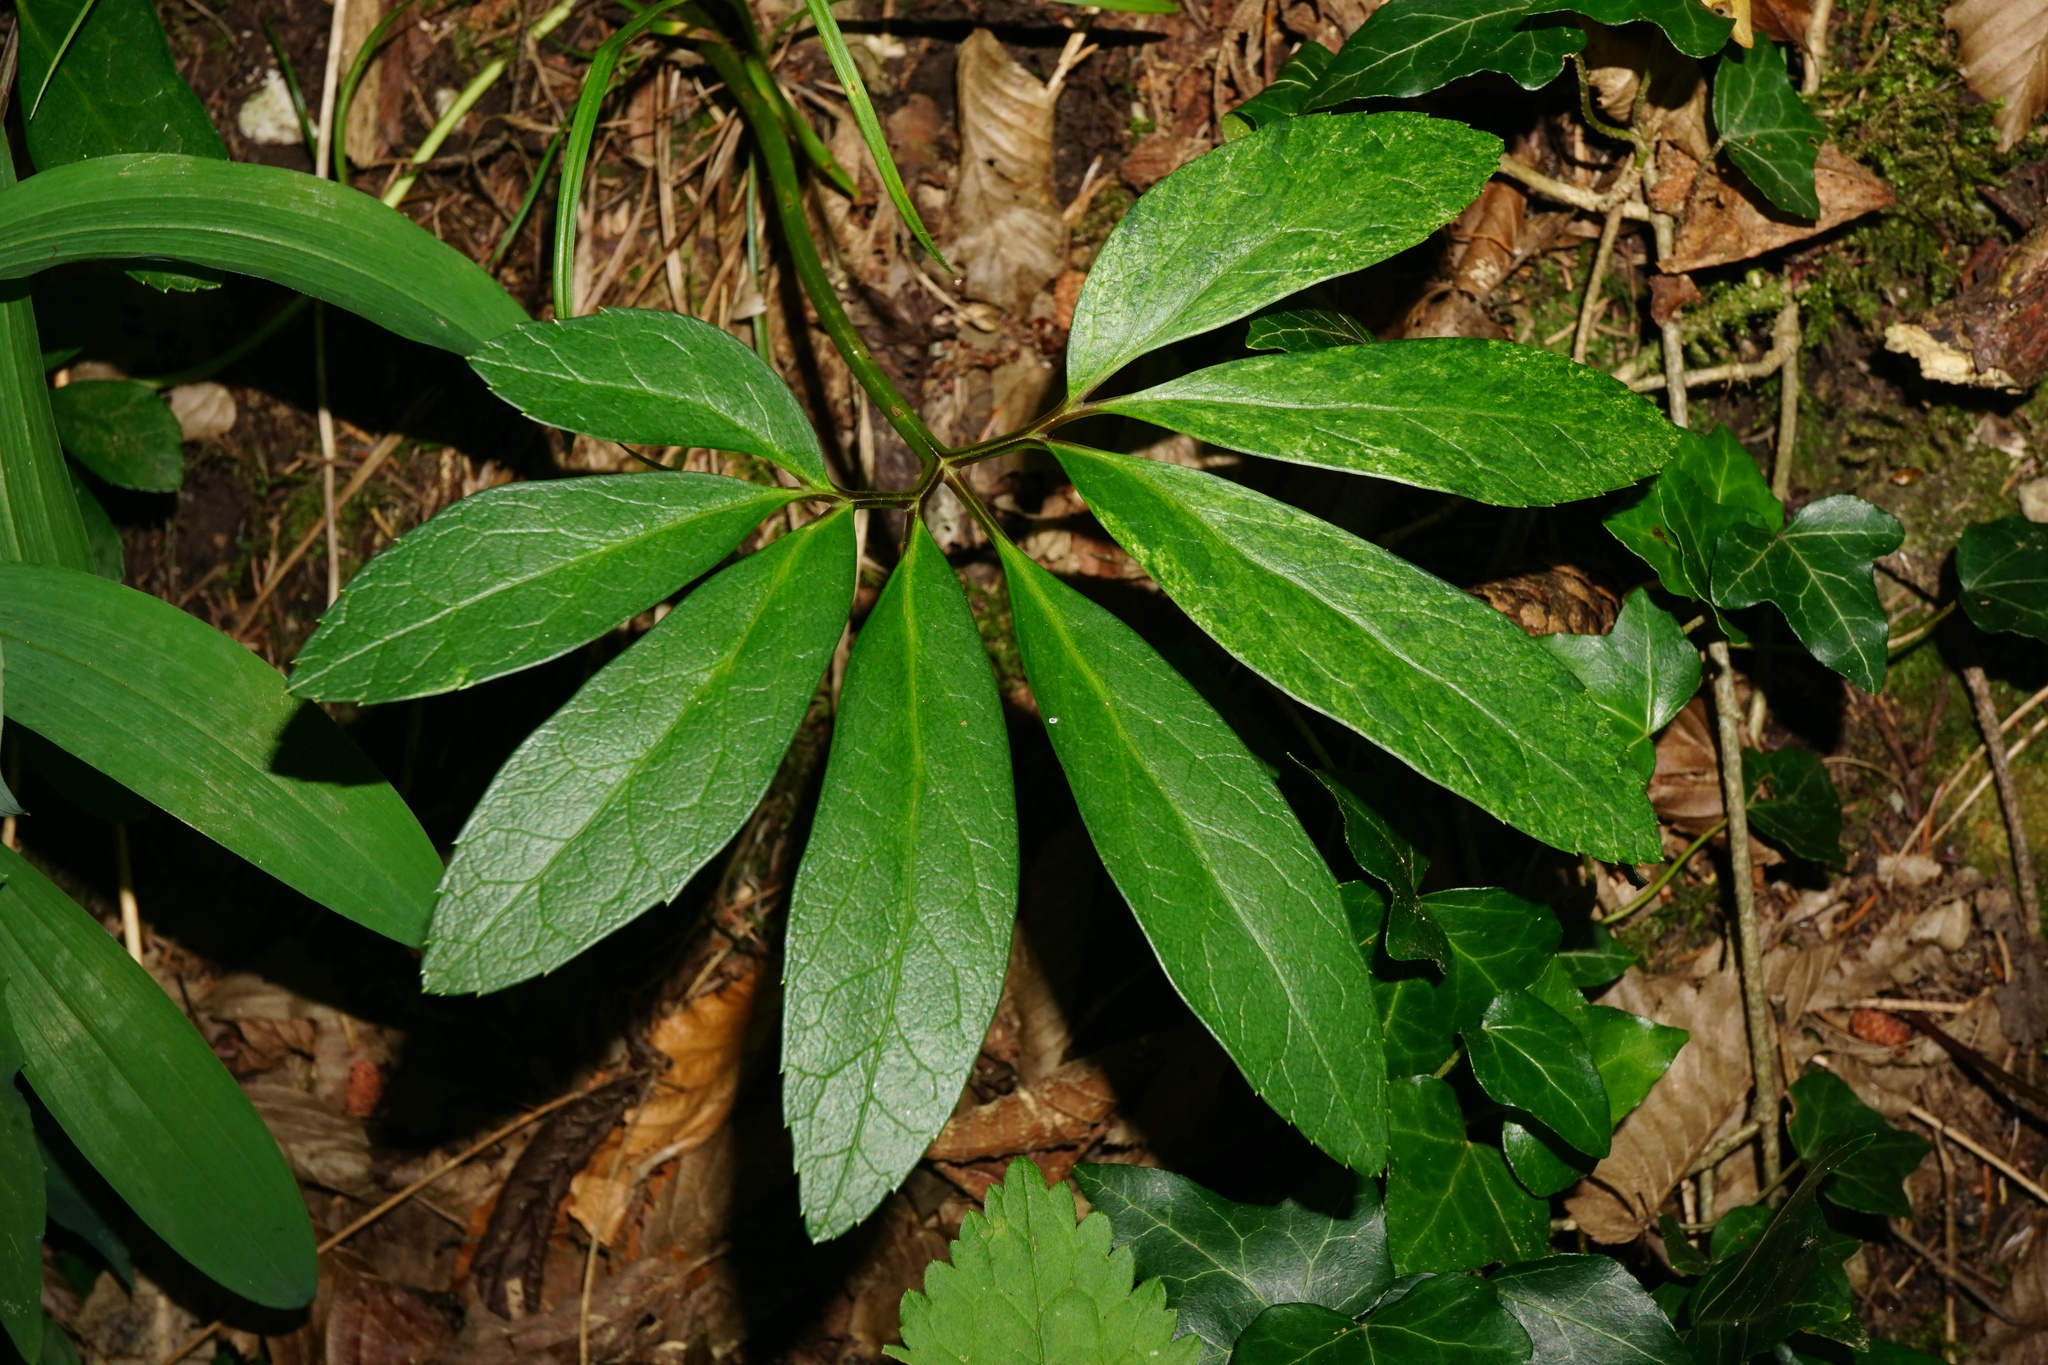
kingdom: Plantae
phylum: Tracheophyta
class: Magnoliopsida
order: Ranunculales
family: Ranunculaceae
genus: Helleborus
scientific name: Helleborus niger
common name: Black hellebore
